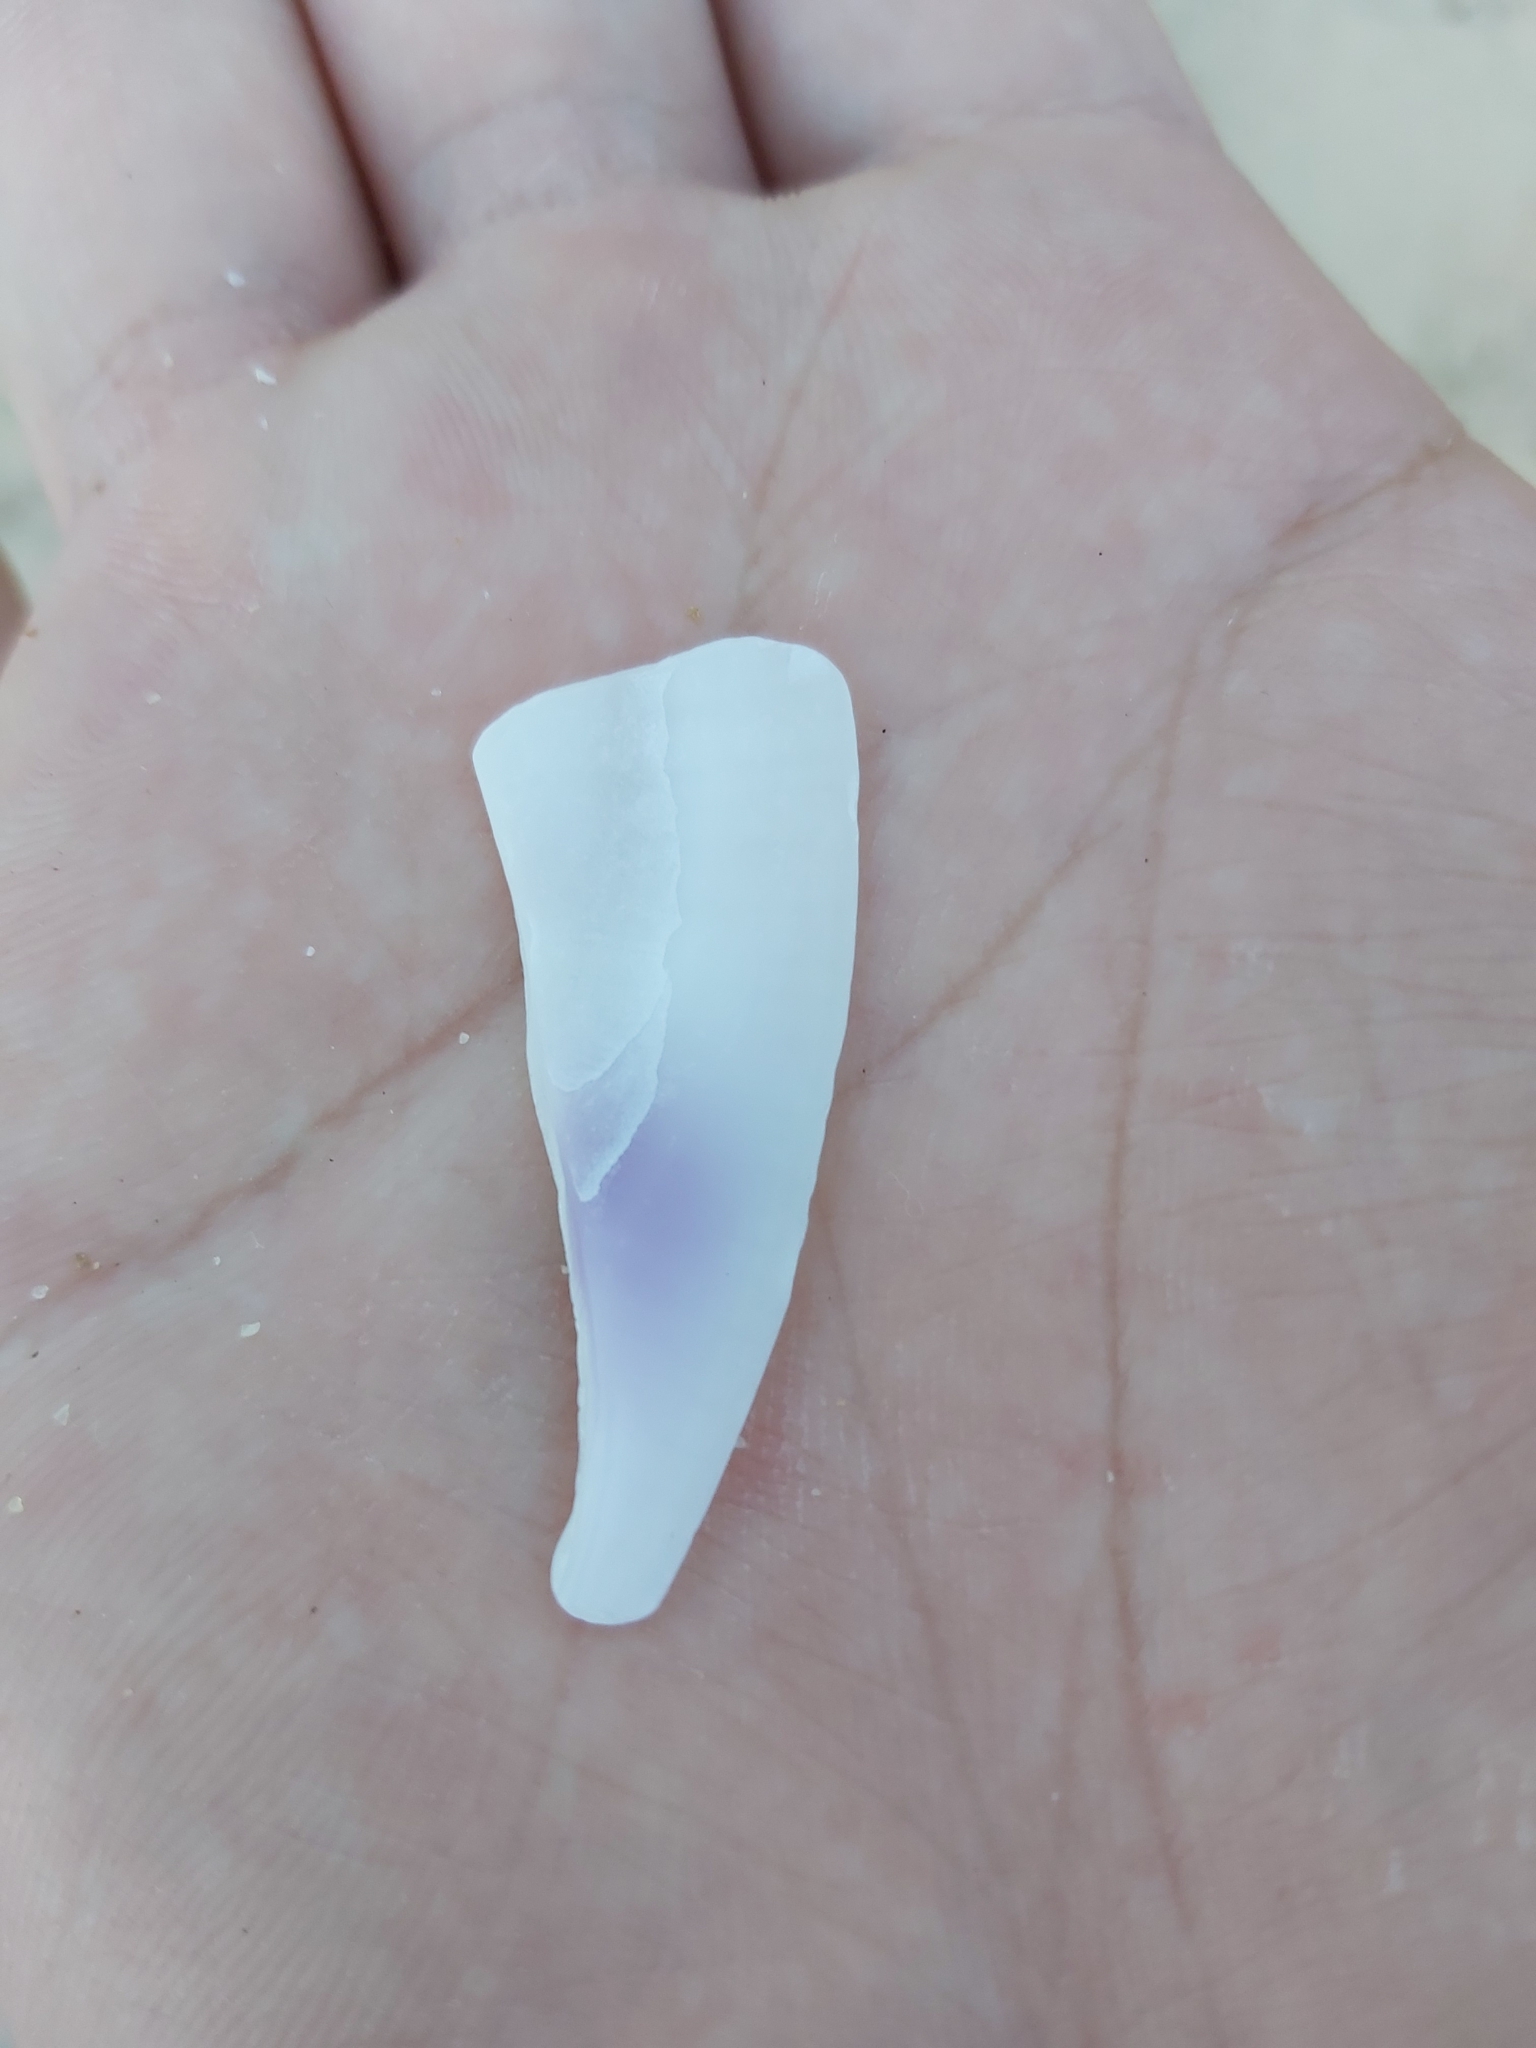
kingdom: Animalia
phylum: Mollusca
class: Bivalvia
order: Cardiida
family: Donacidae
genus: Latona
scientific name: Latona deltoides
